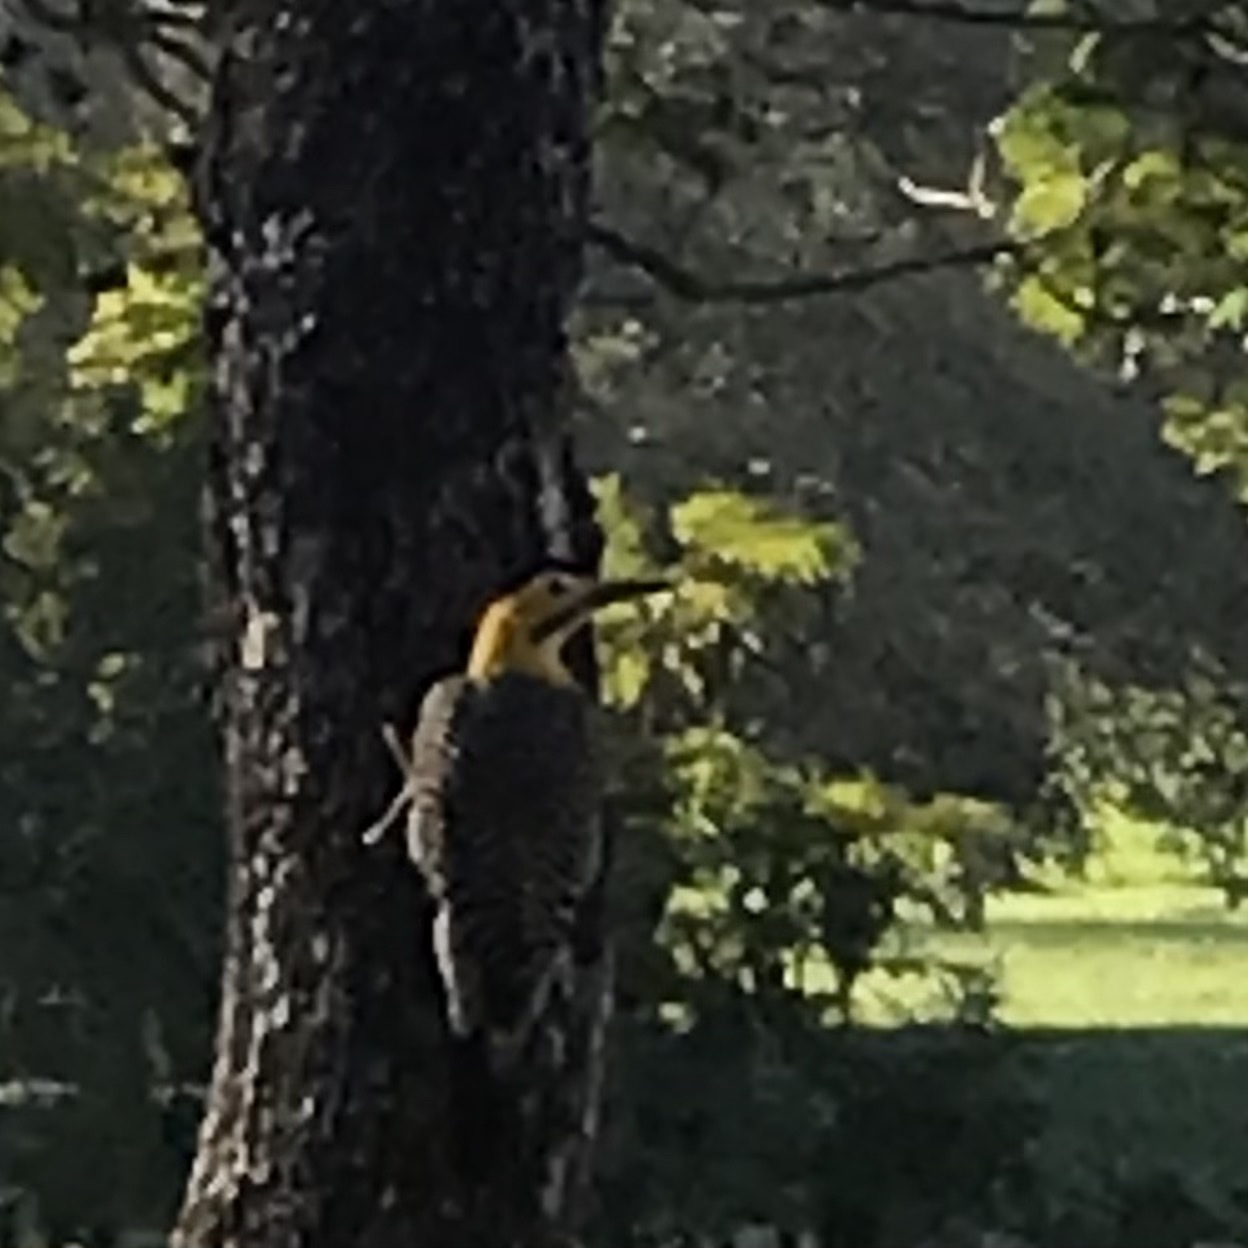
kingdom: Animalia
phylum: Chordata
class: Aves
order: Piciformes
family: Picidae
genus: Colaptes
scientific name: Colaptes campestris
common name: Campo flicker
